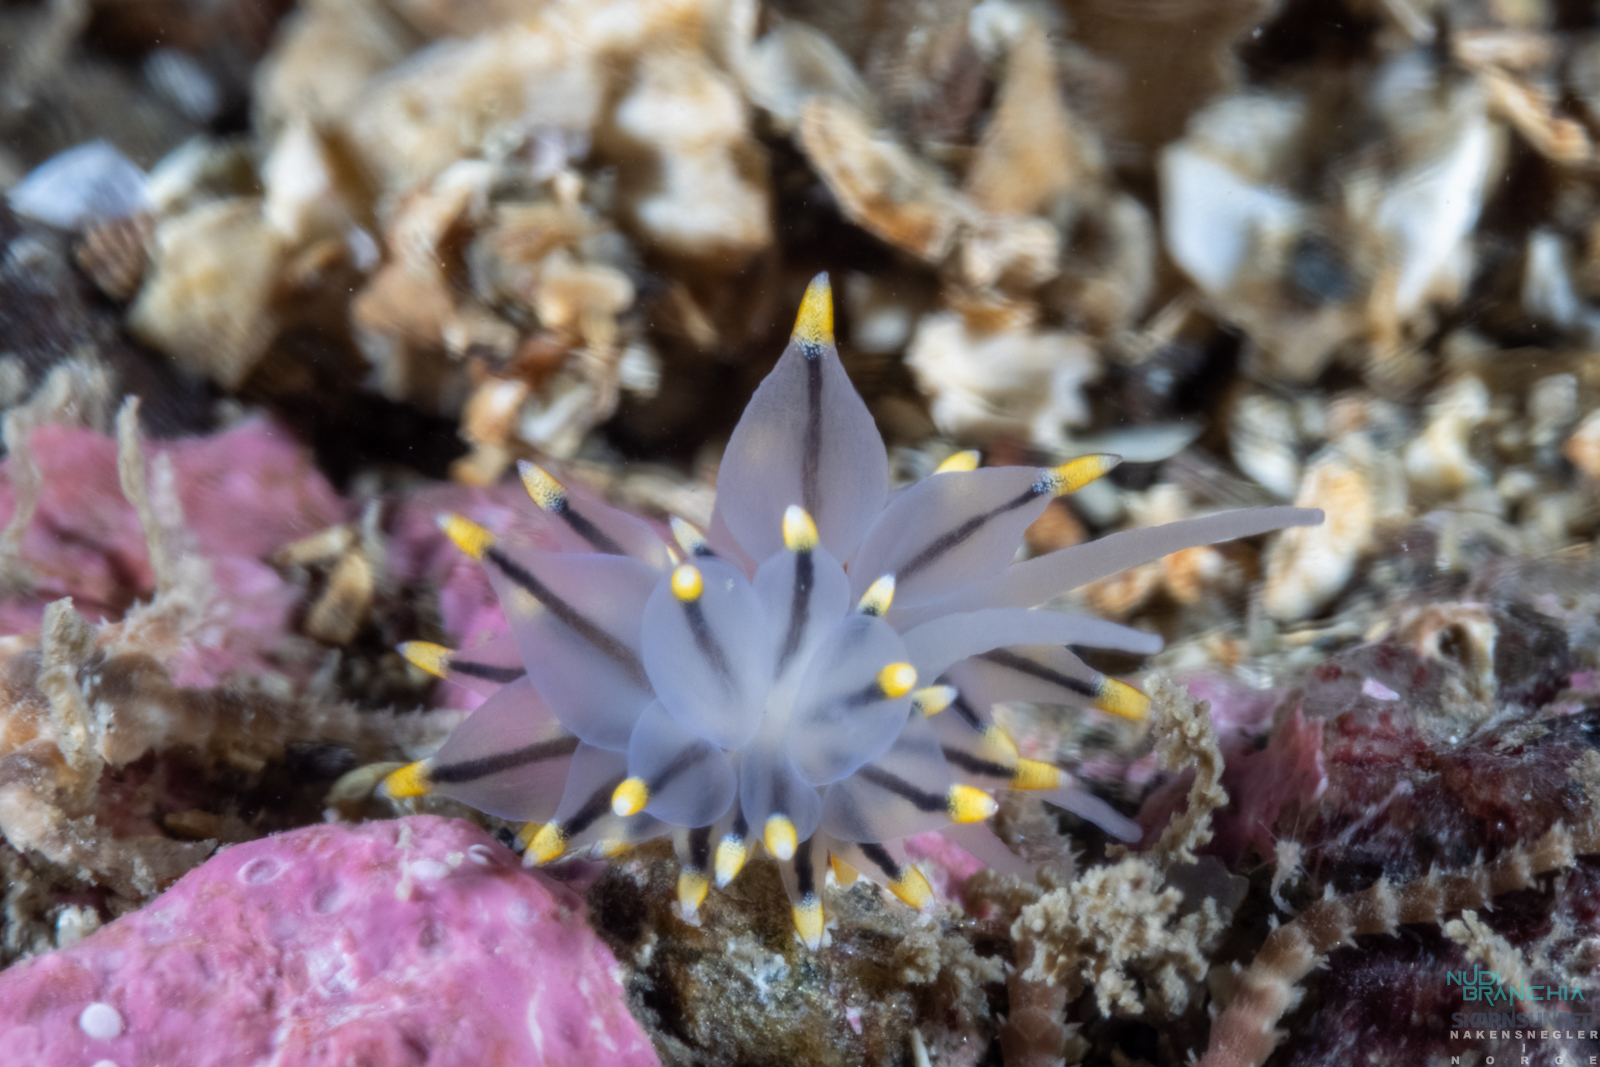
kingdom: Animalia
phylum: Mollusca
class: Gastropoda
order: Nudibranchia
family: Eubranchidae
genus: Eubranchus
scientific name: Eubranchus tricolor
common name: Painted balloon aeolis
